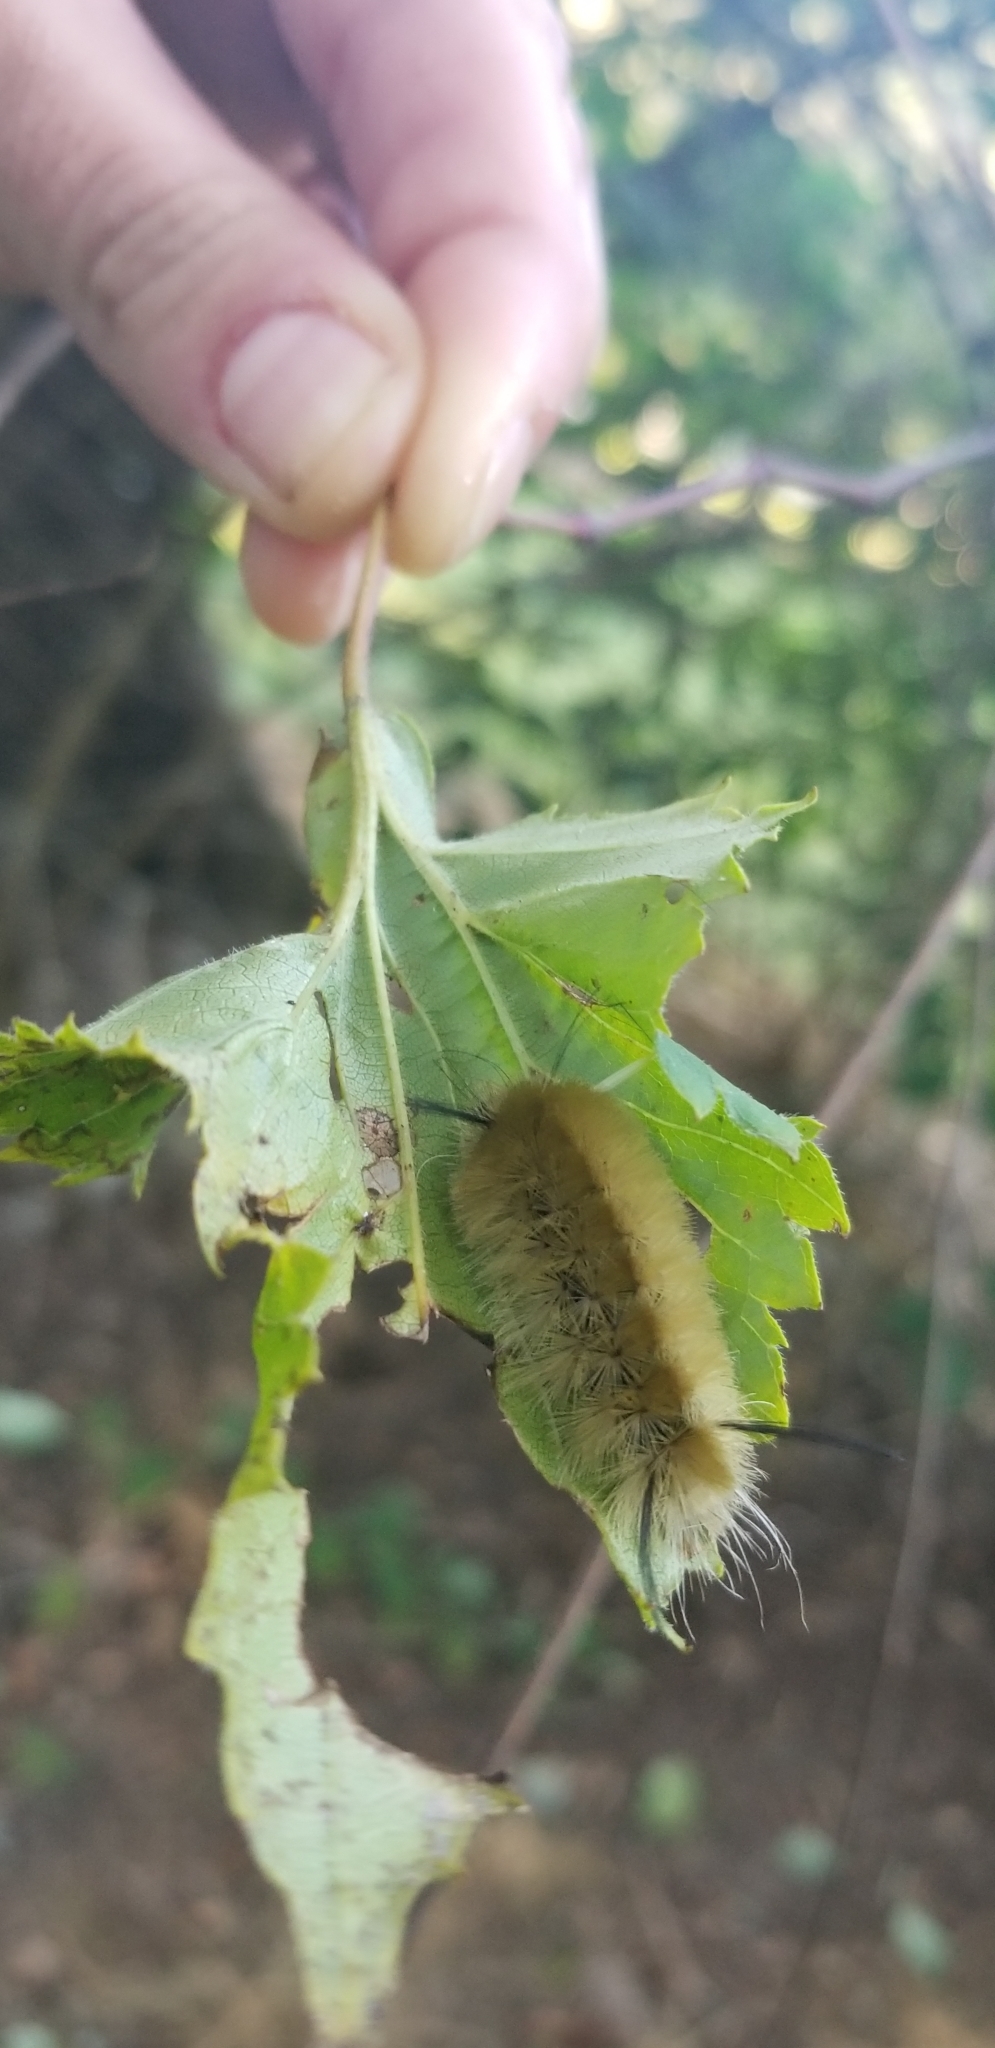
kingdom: Animalia
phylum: Arthropoda
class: Insecta
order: Lepidoptera
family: Erebidae
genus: Halysidota
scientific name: Halysidota tessellaris
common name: Banded tussock moth
